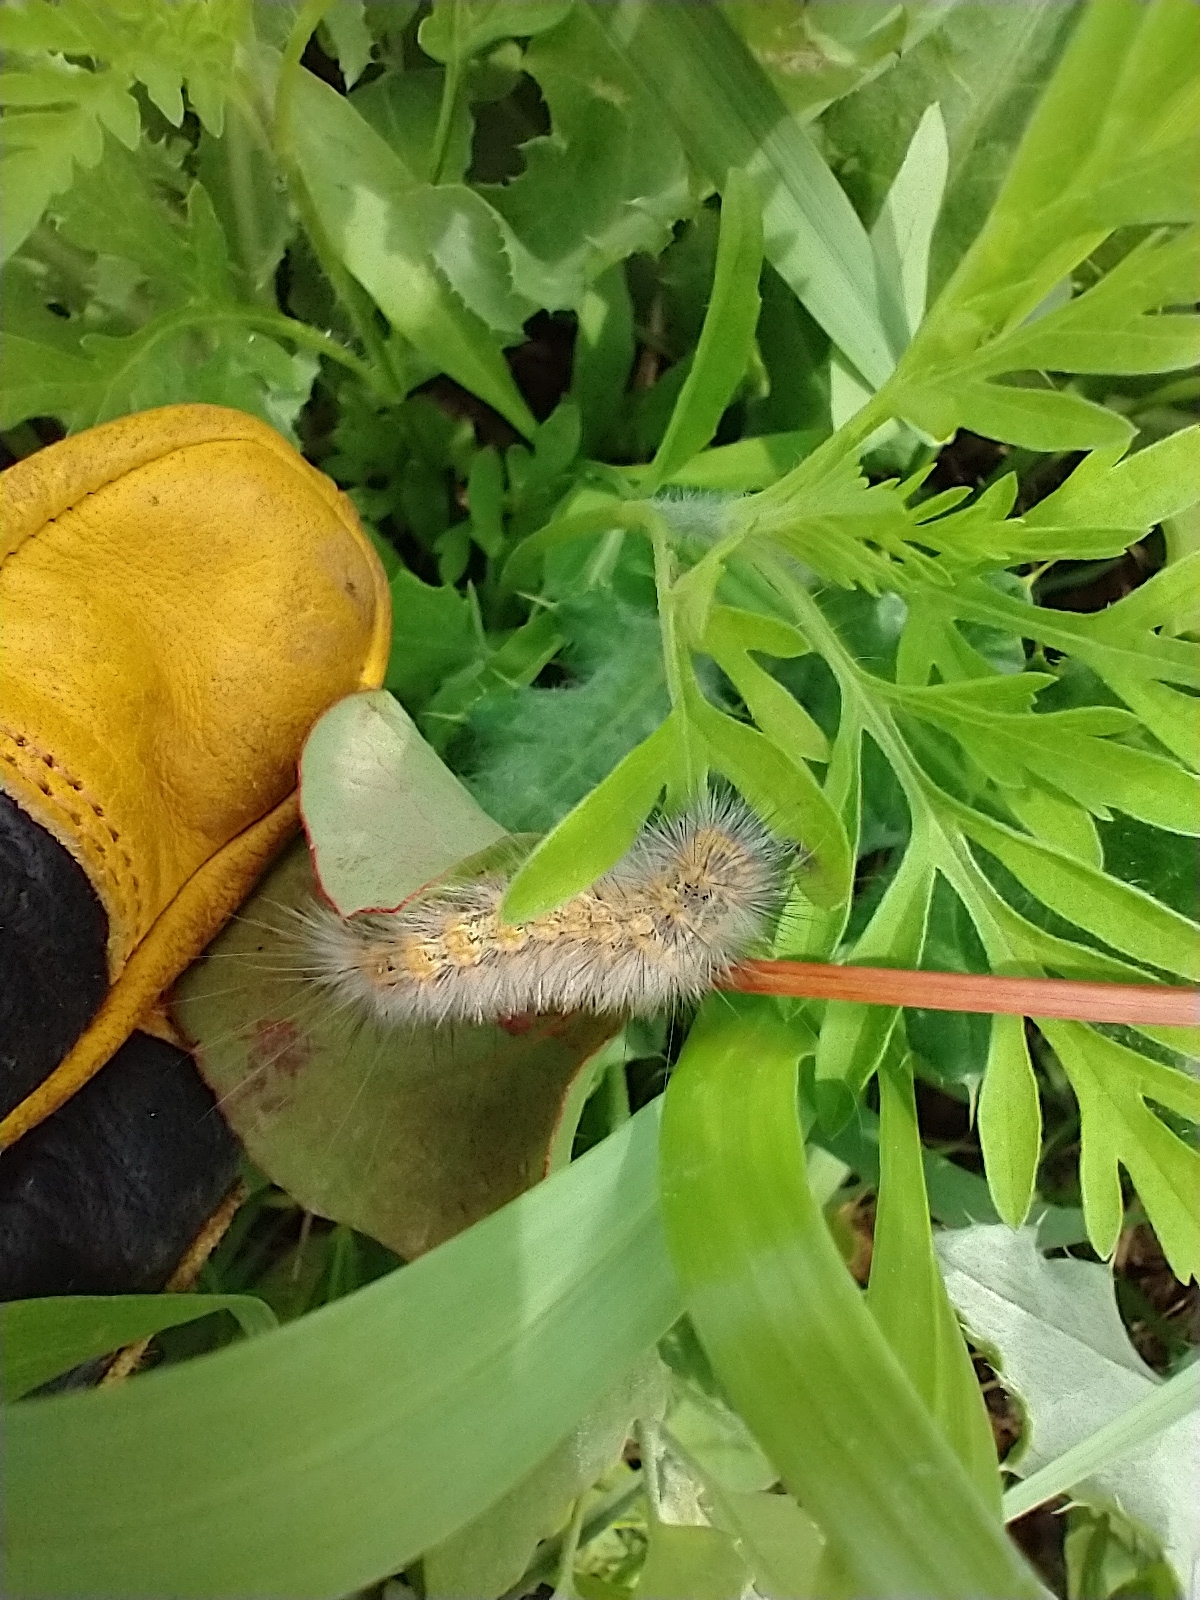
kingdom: Animalia
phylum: Arthropoda
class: Insecta
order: Lepidoptera
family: Erebidae
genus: Estigmene
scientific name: Estigmene acrea
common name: Salt marsh moth
